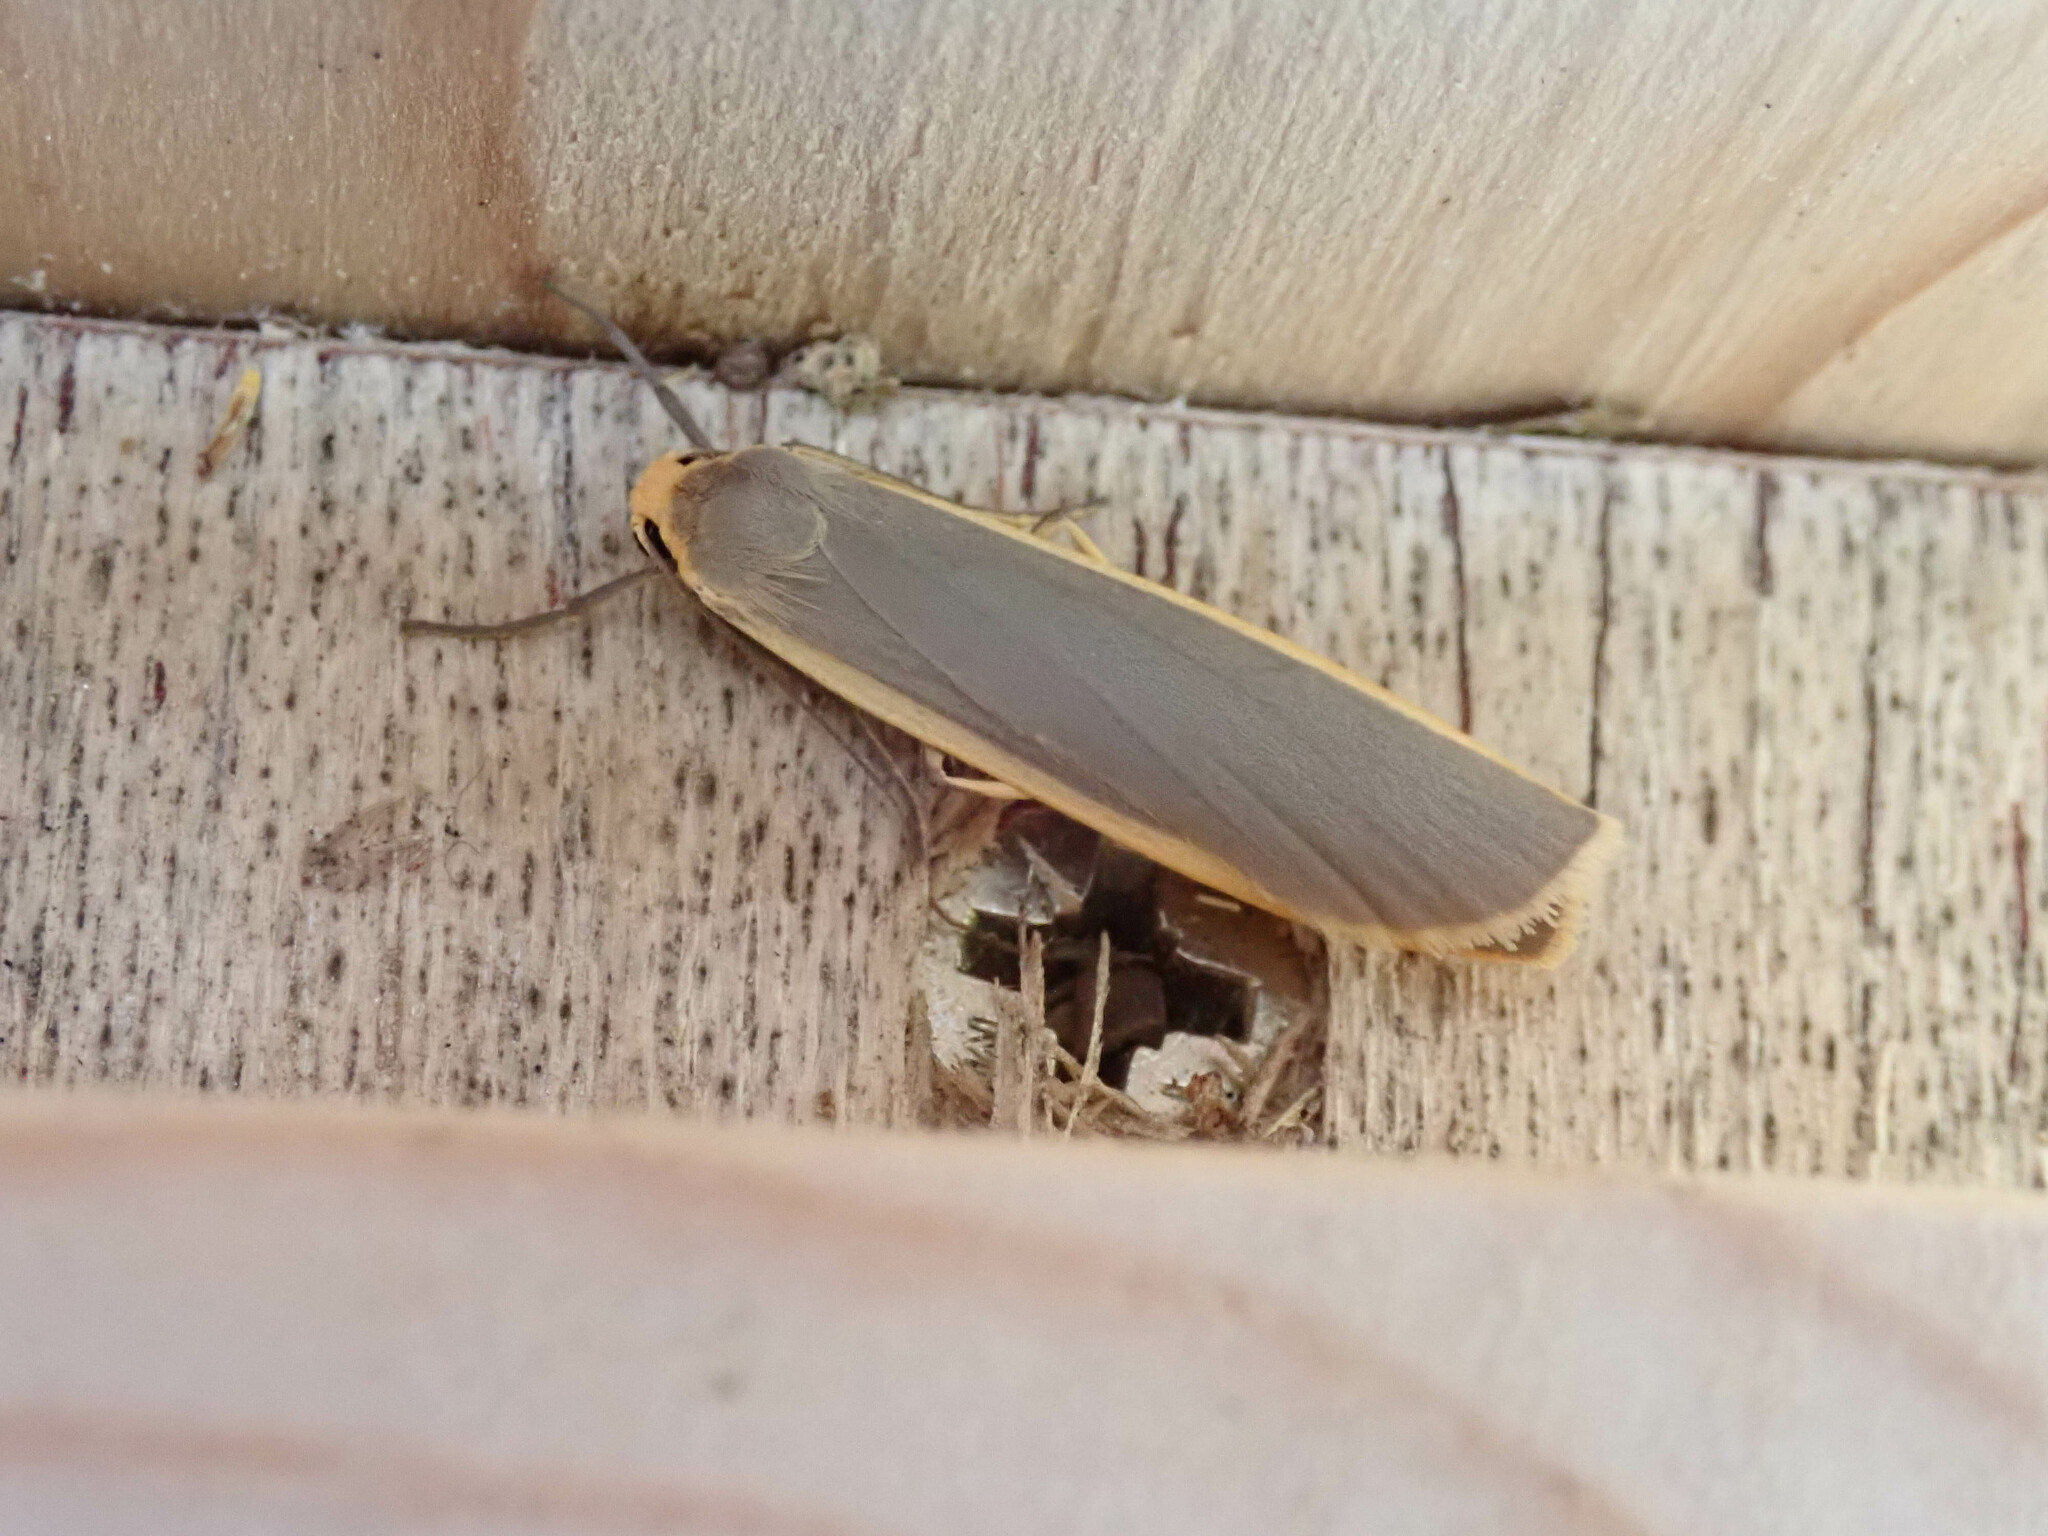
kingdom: Animalia
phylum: Arthropoda
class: Insecta
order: Lepidoptera
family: Erebidae
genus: Nyea
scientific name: Nyea lurideola
